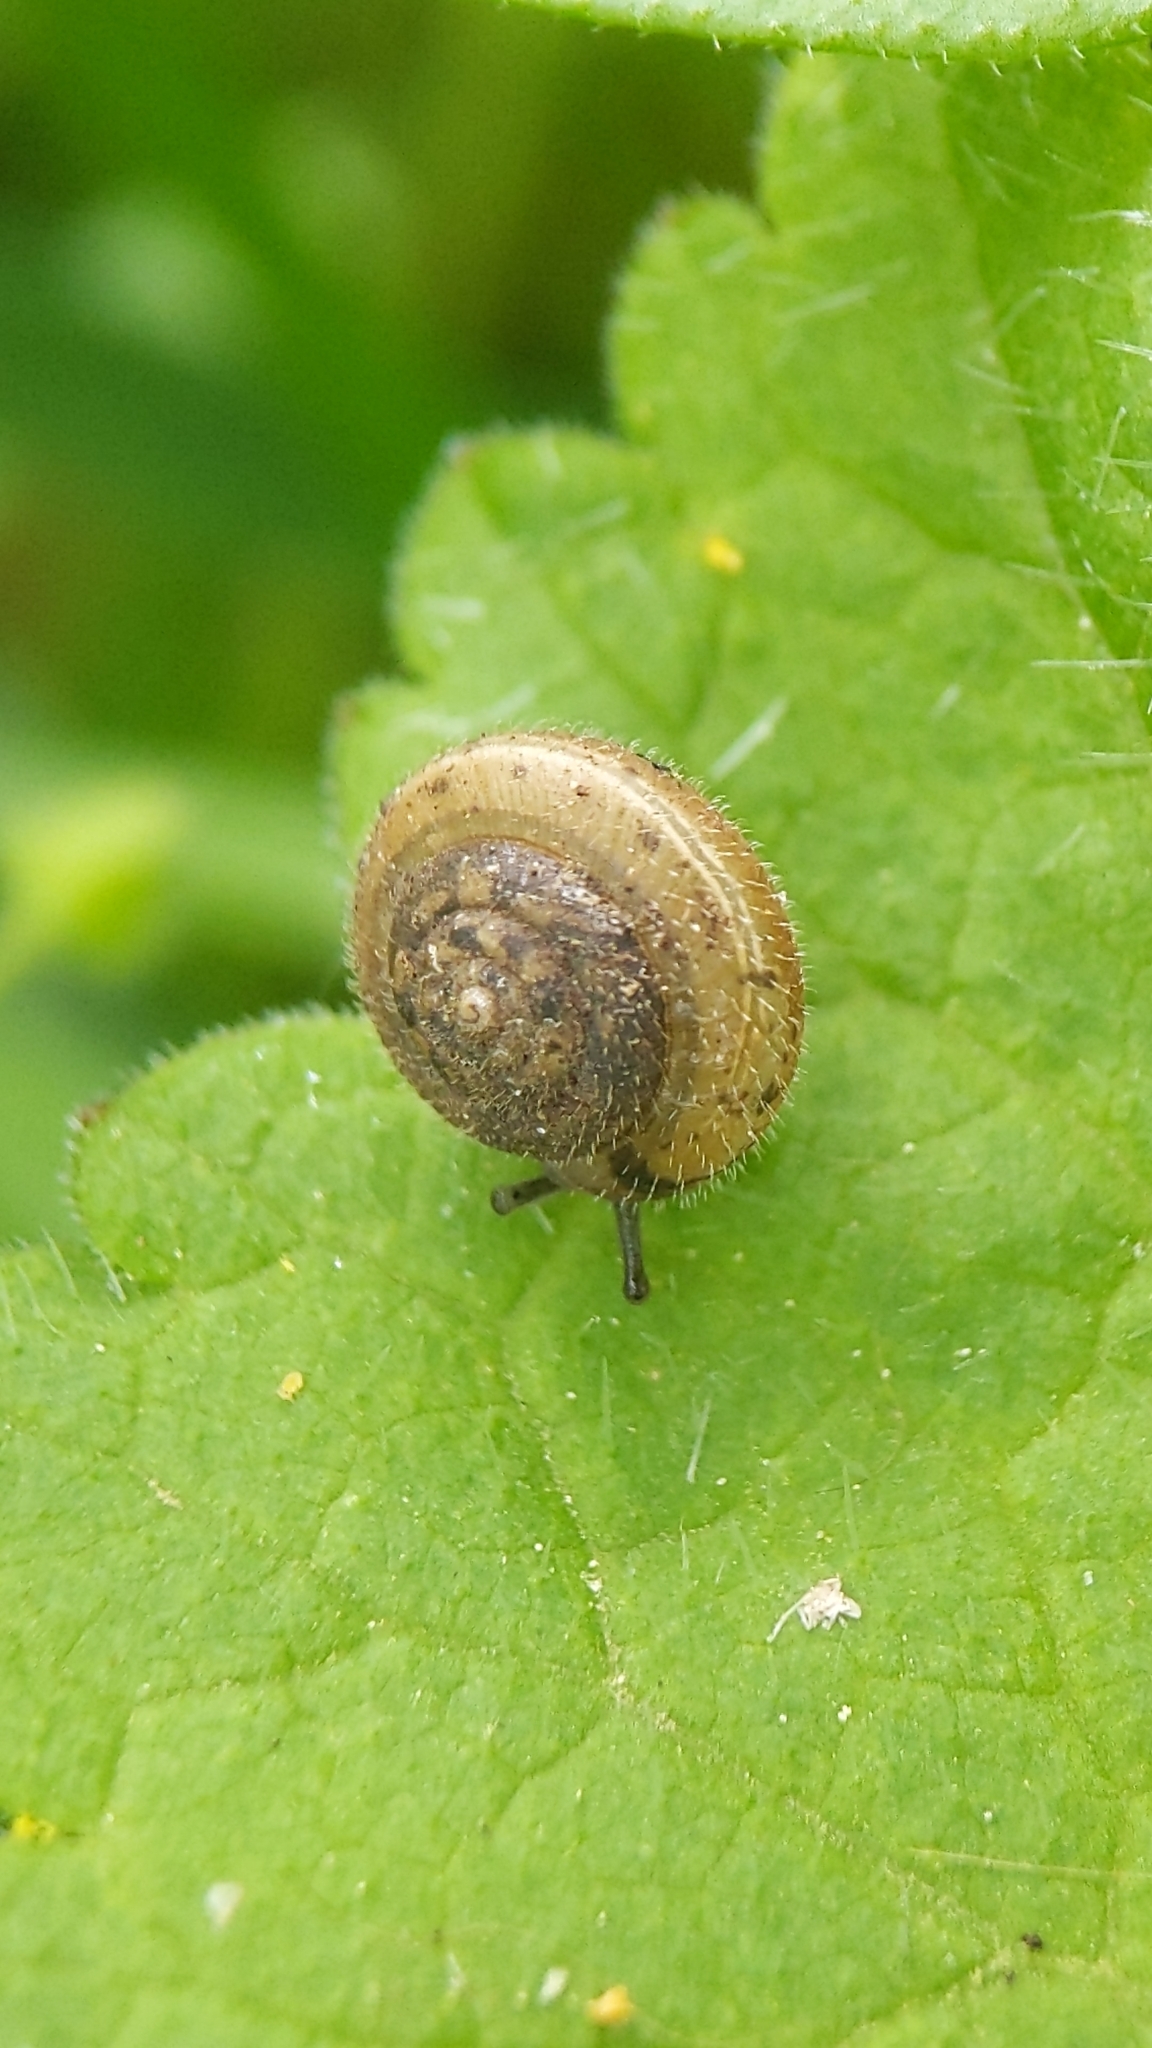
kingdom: Animalia
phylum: Mollusca
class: Gastropoda
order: Stylommatophora
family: Hygromiidae
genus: Trochulus
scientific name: Trochulus hispidus
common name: Hairy snail
